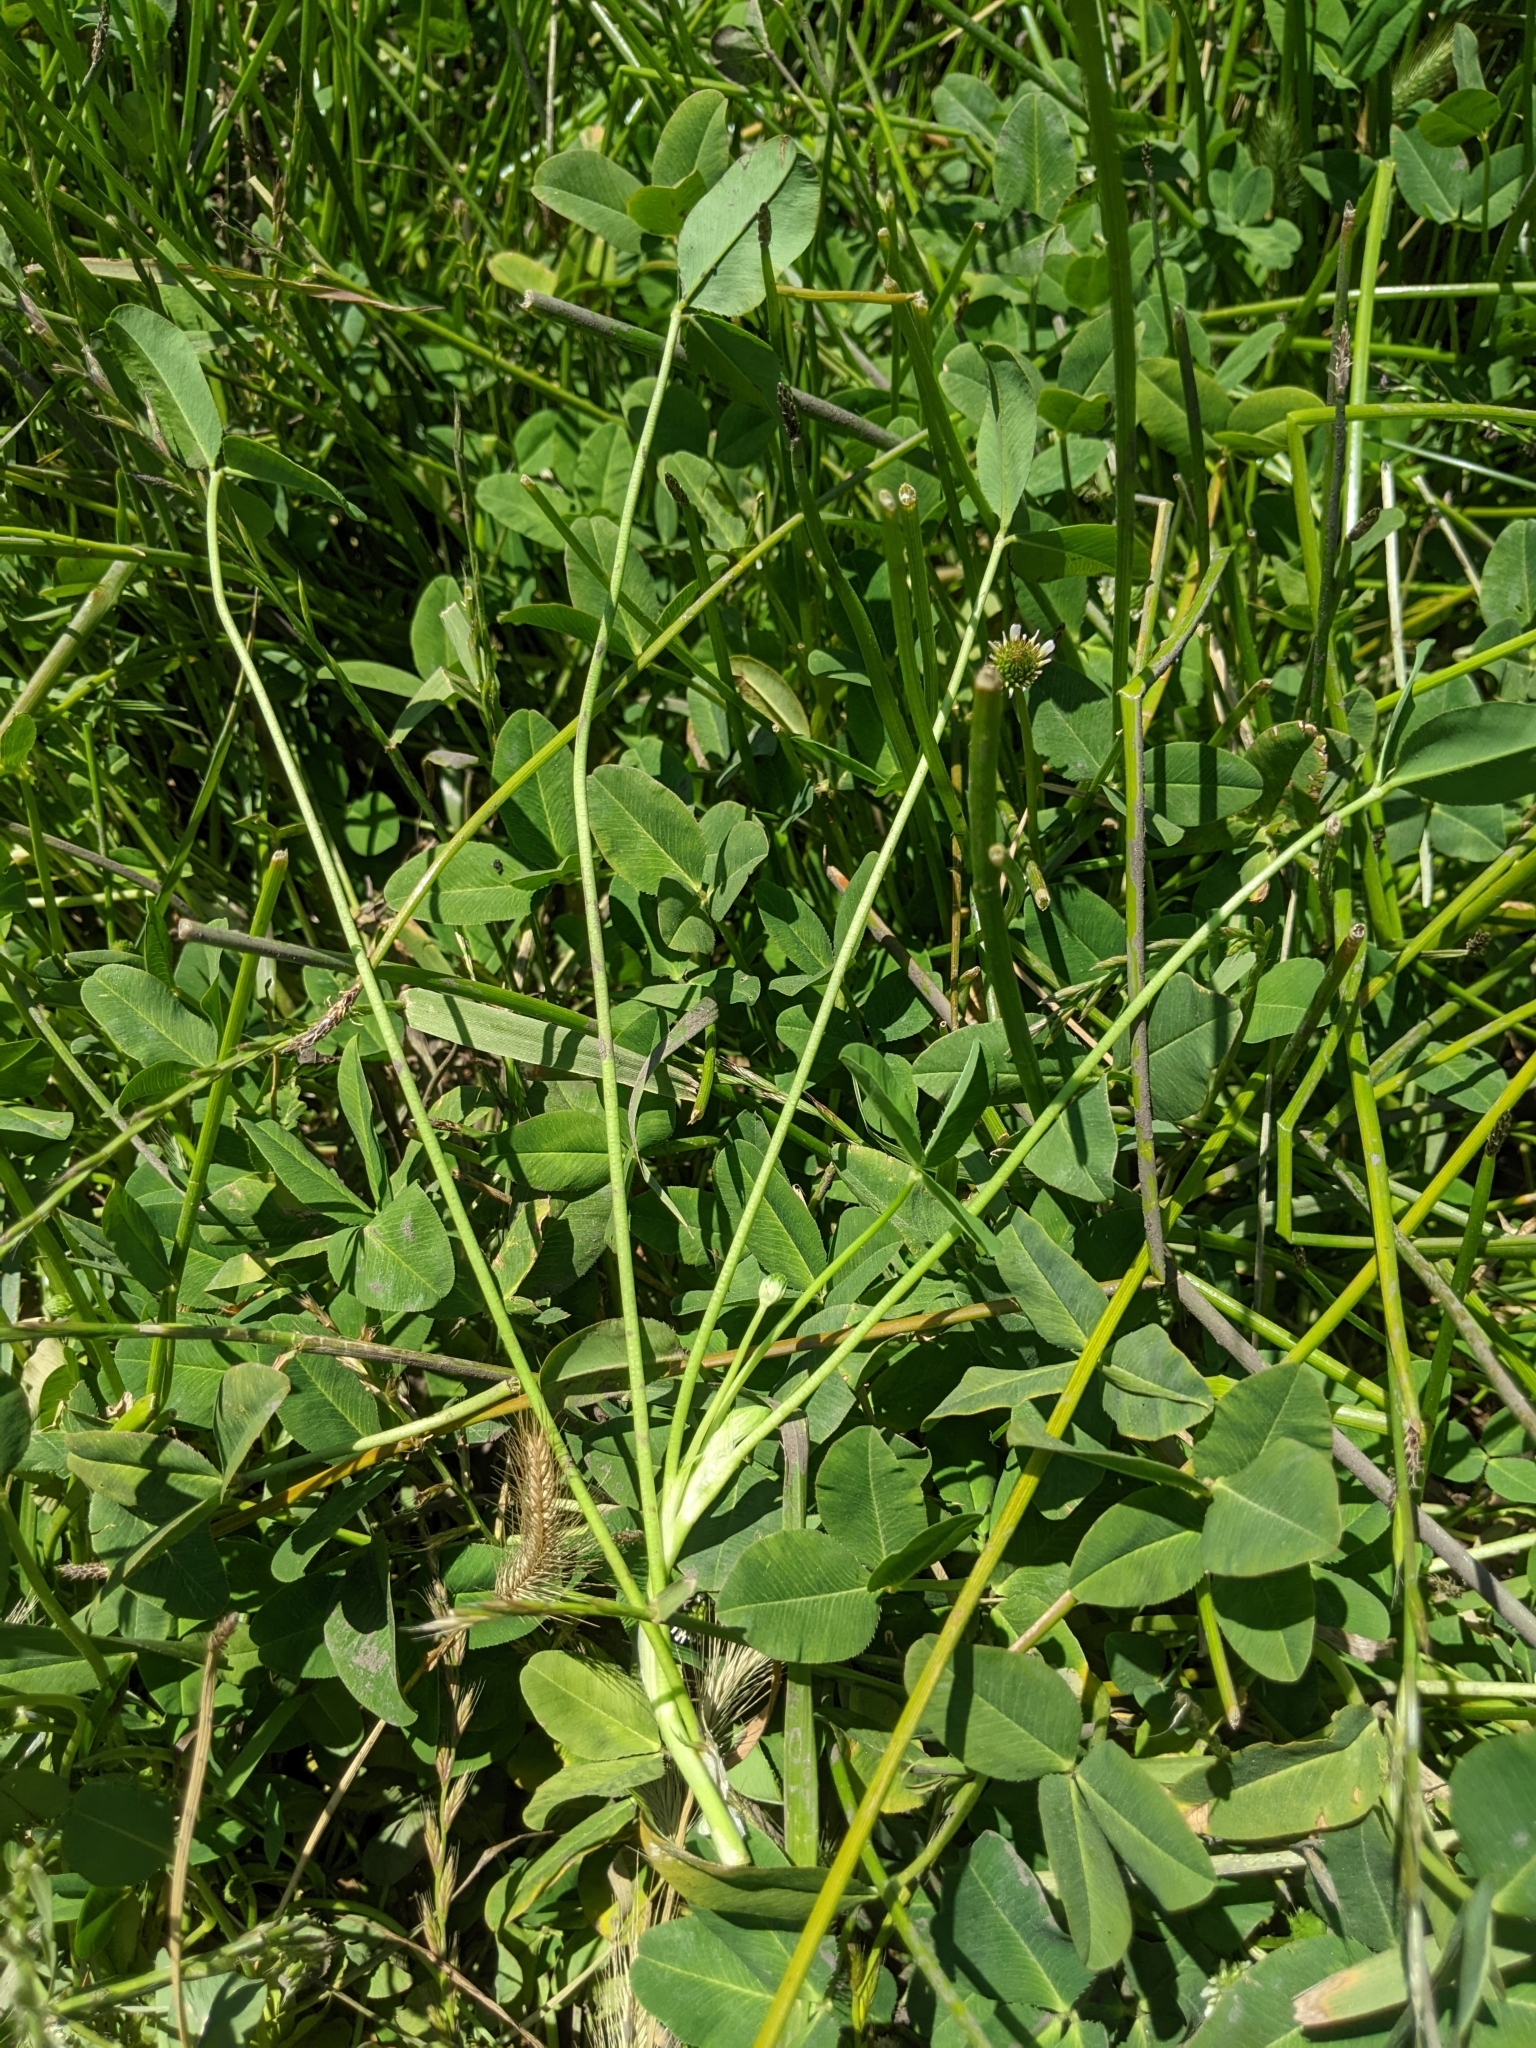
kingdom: Plantae
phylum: Tracheophyta
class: Magnoliopsida
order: Fabales
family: Fabaceae
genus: Trifolium
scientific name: Trifolium repens
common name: White clover
